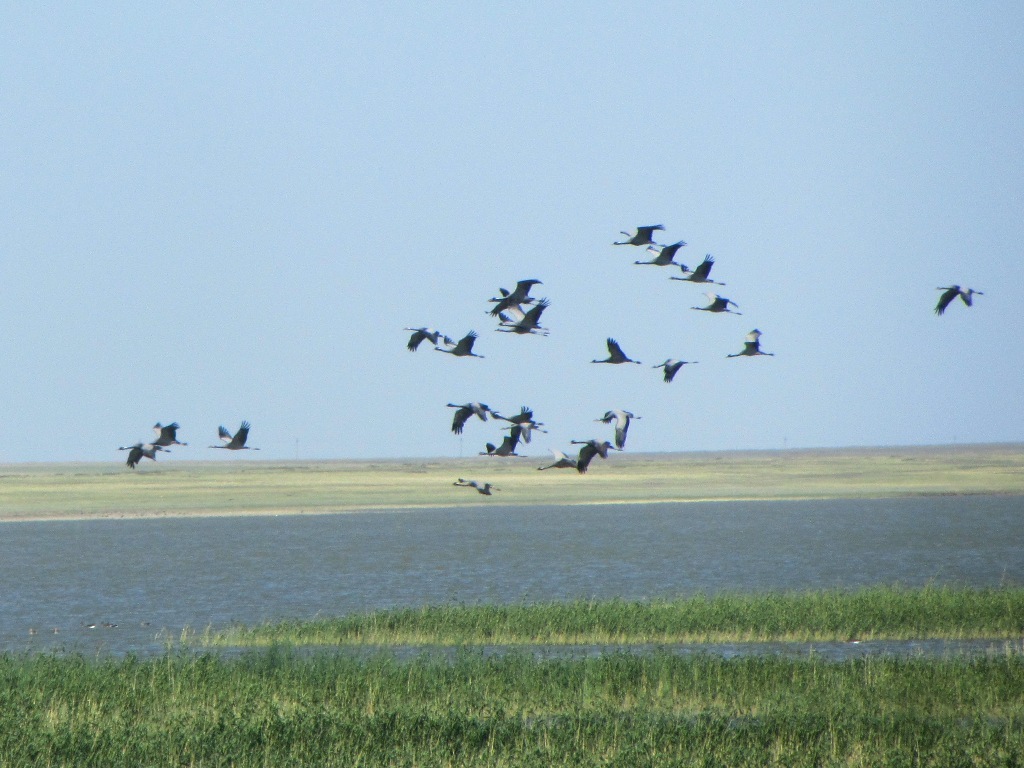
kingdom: Animalia
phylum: Chordata
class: Aves
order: Gruiformes
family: Gruidae
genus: Anthropoides
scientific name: Anthropoides virgo
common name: Demoiselle crane
